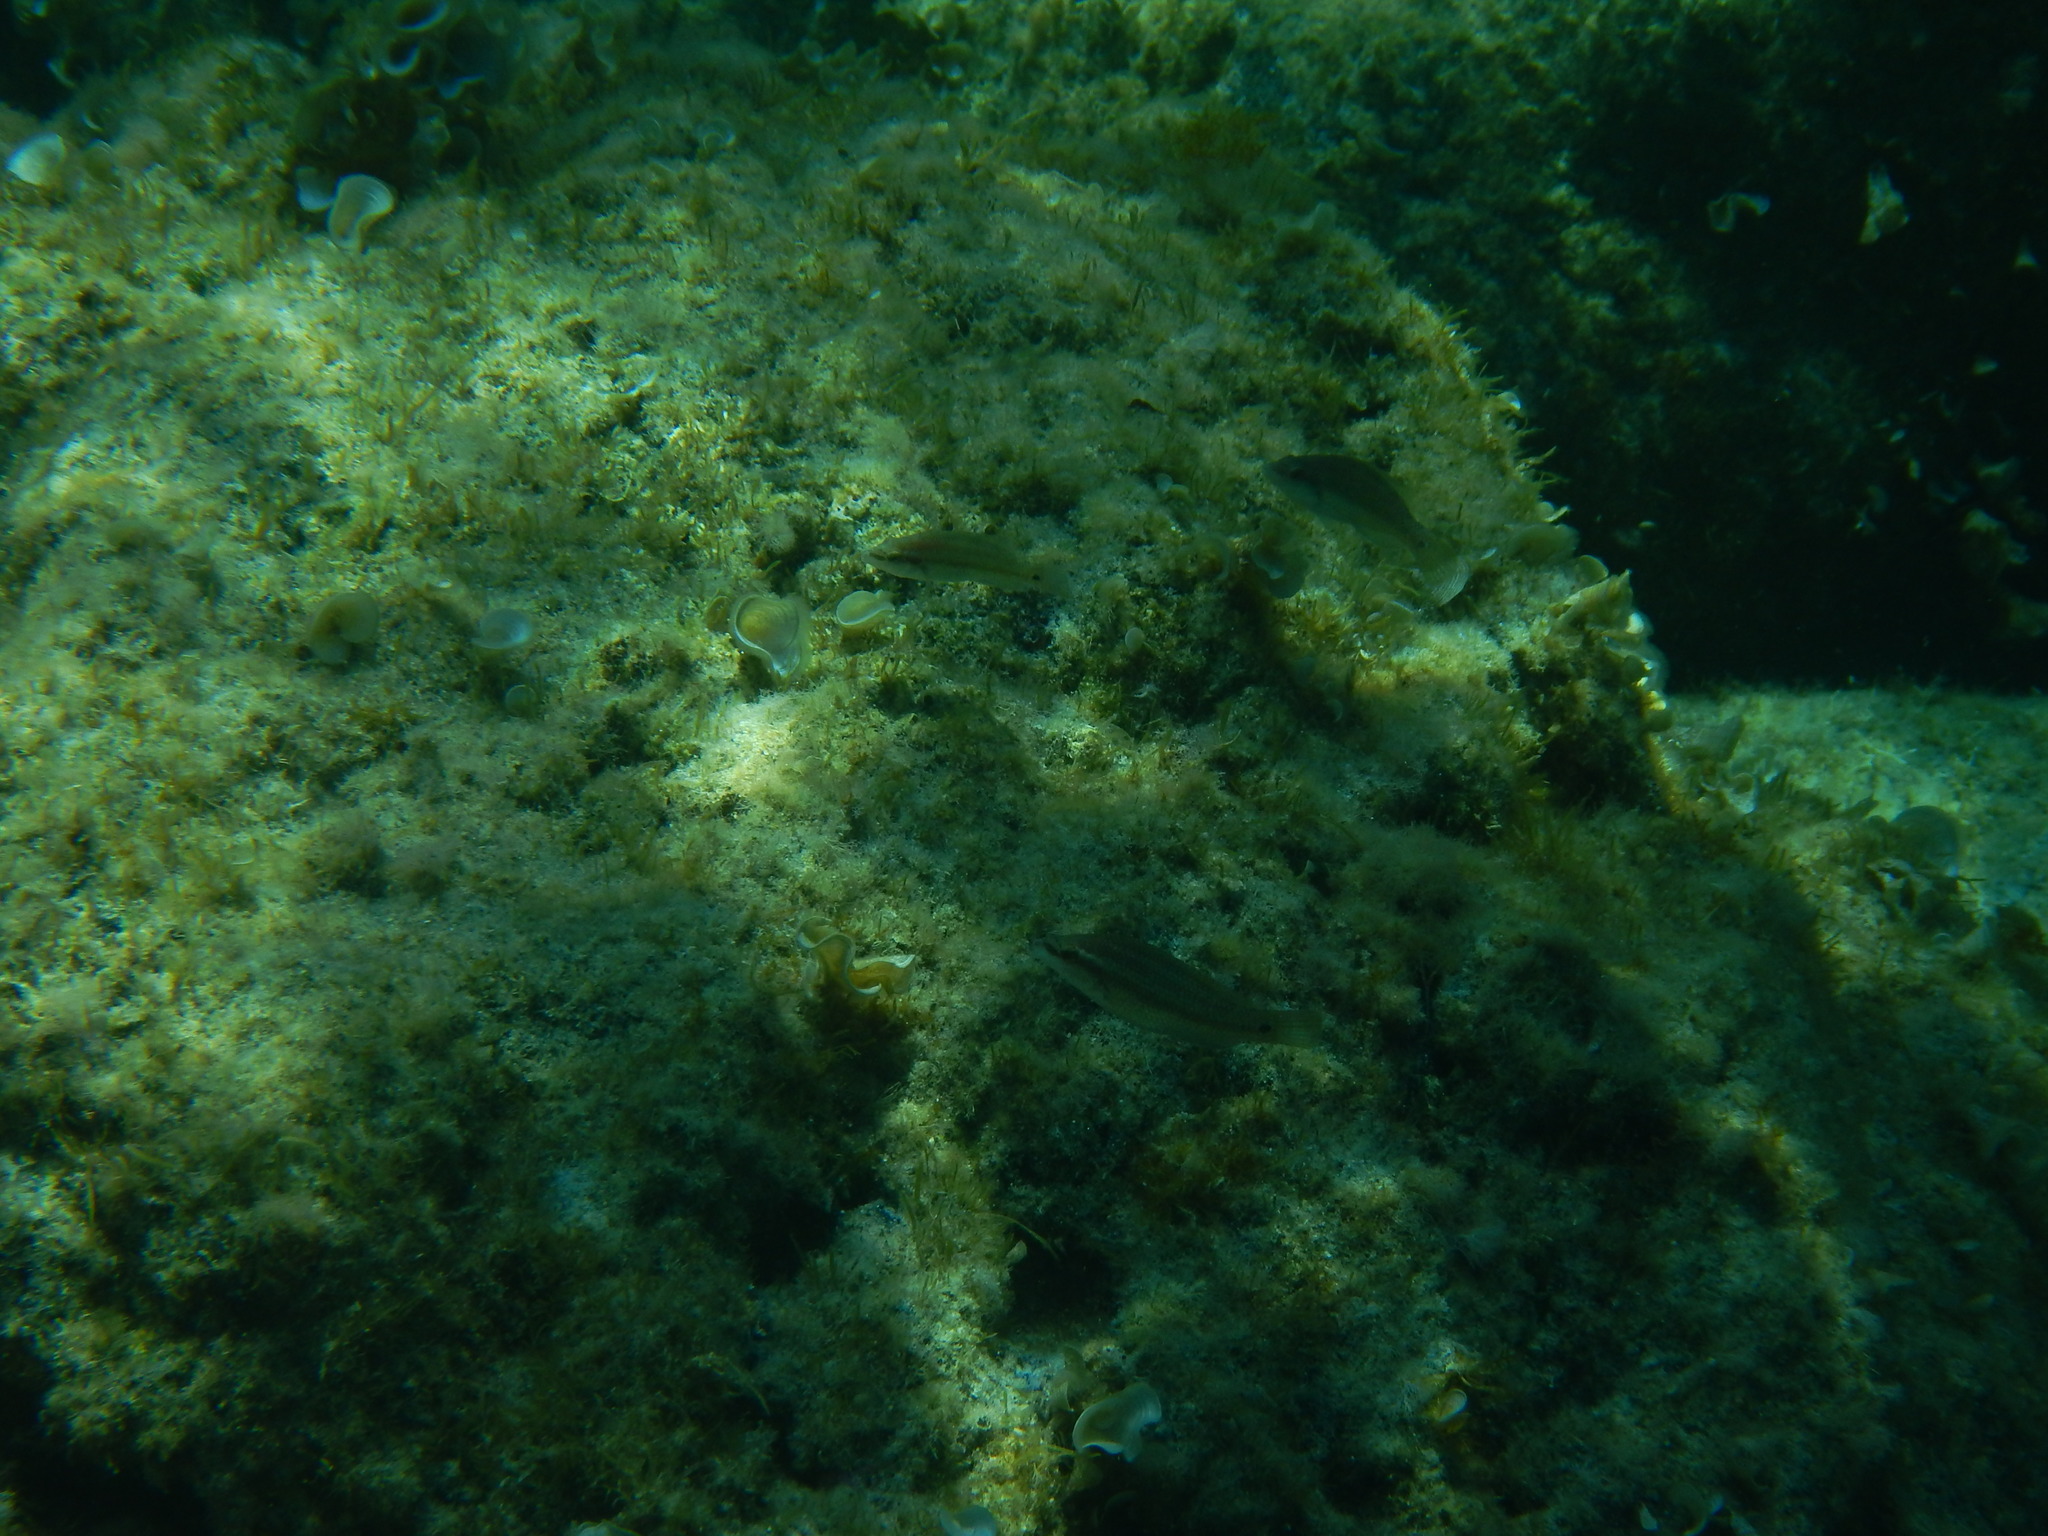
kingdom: Animalia
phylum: Chordata
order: Perciformes
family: Labridae
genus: Symphodus
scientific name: Symphodus tinca
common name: Peacock wrasse
